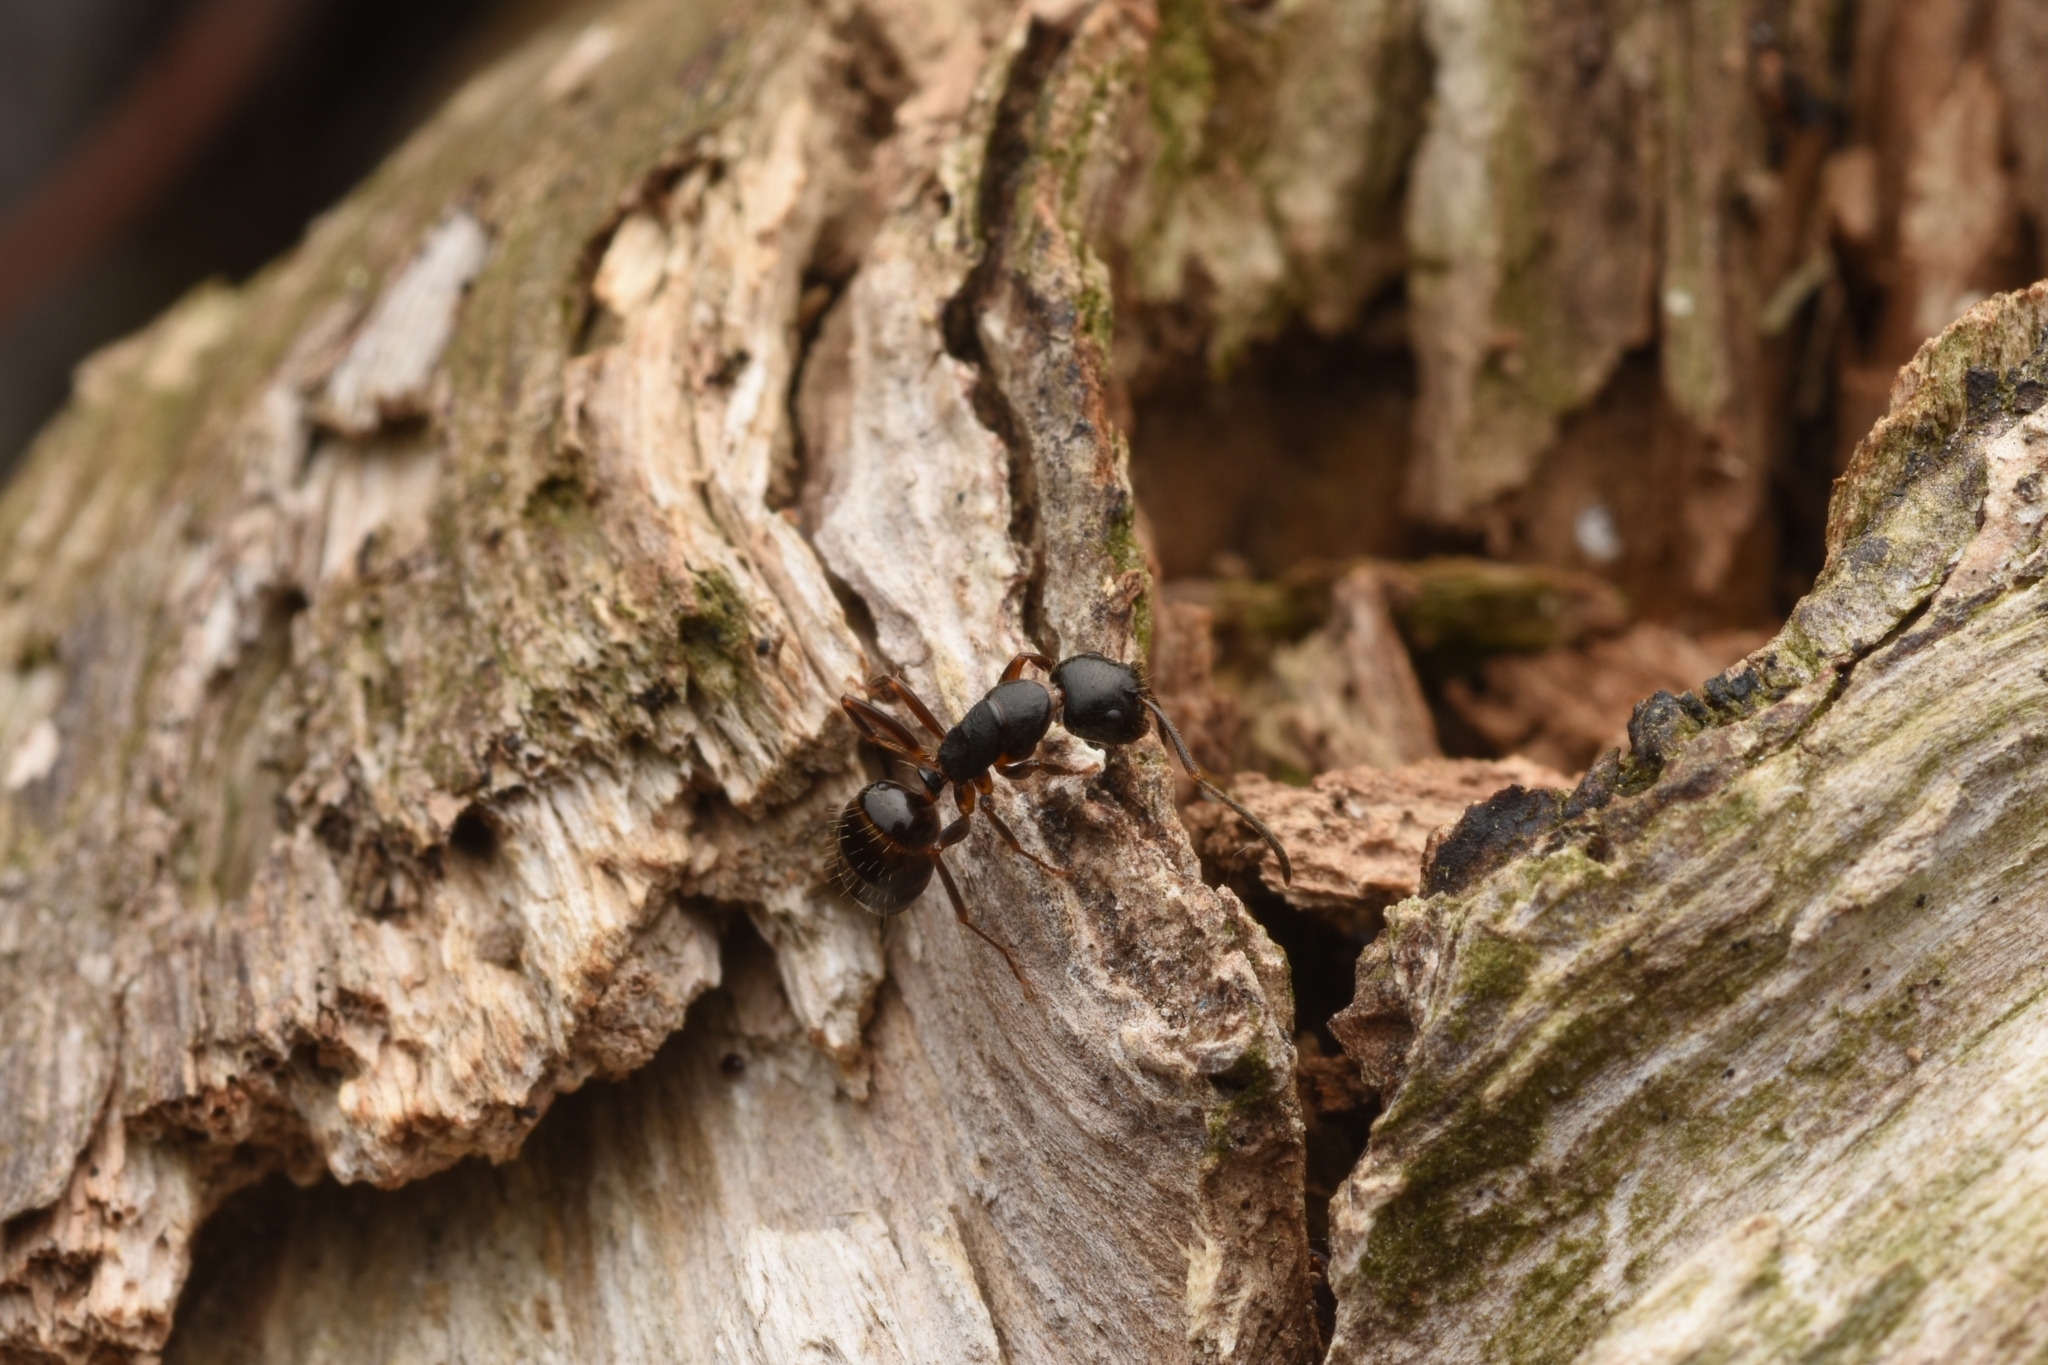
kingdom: Animalia
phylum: Arthropoda
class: Insecta
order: Hymenoptera
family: Formicidae
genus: Camponotus
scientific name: Camponotus nipponensis
